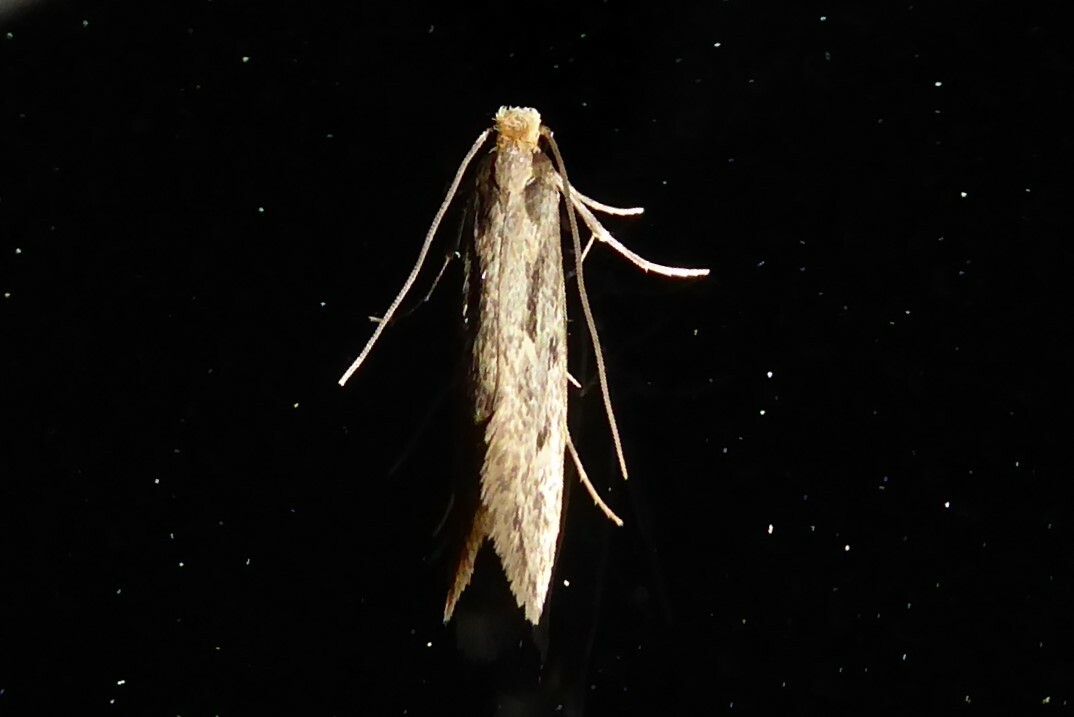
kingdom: Animalia
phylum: Arthropoda
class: Insecta
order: Lepidoptera
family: Tineidae
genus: Tinea
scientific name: Tinea pallescentella
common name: Large pale clothes moth
